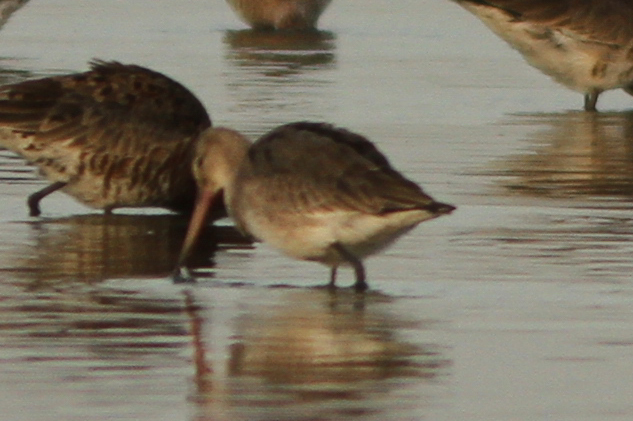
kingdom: Animalia
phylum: Chordata
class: Aves
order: Charadriiformes
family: Scolopacidae
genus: Limosa
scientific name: Limosa limosa
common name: Black-tailed godwit
